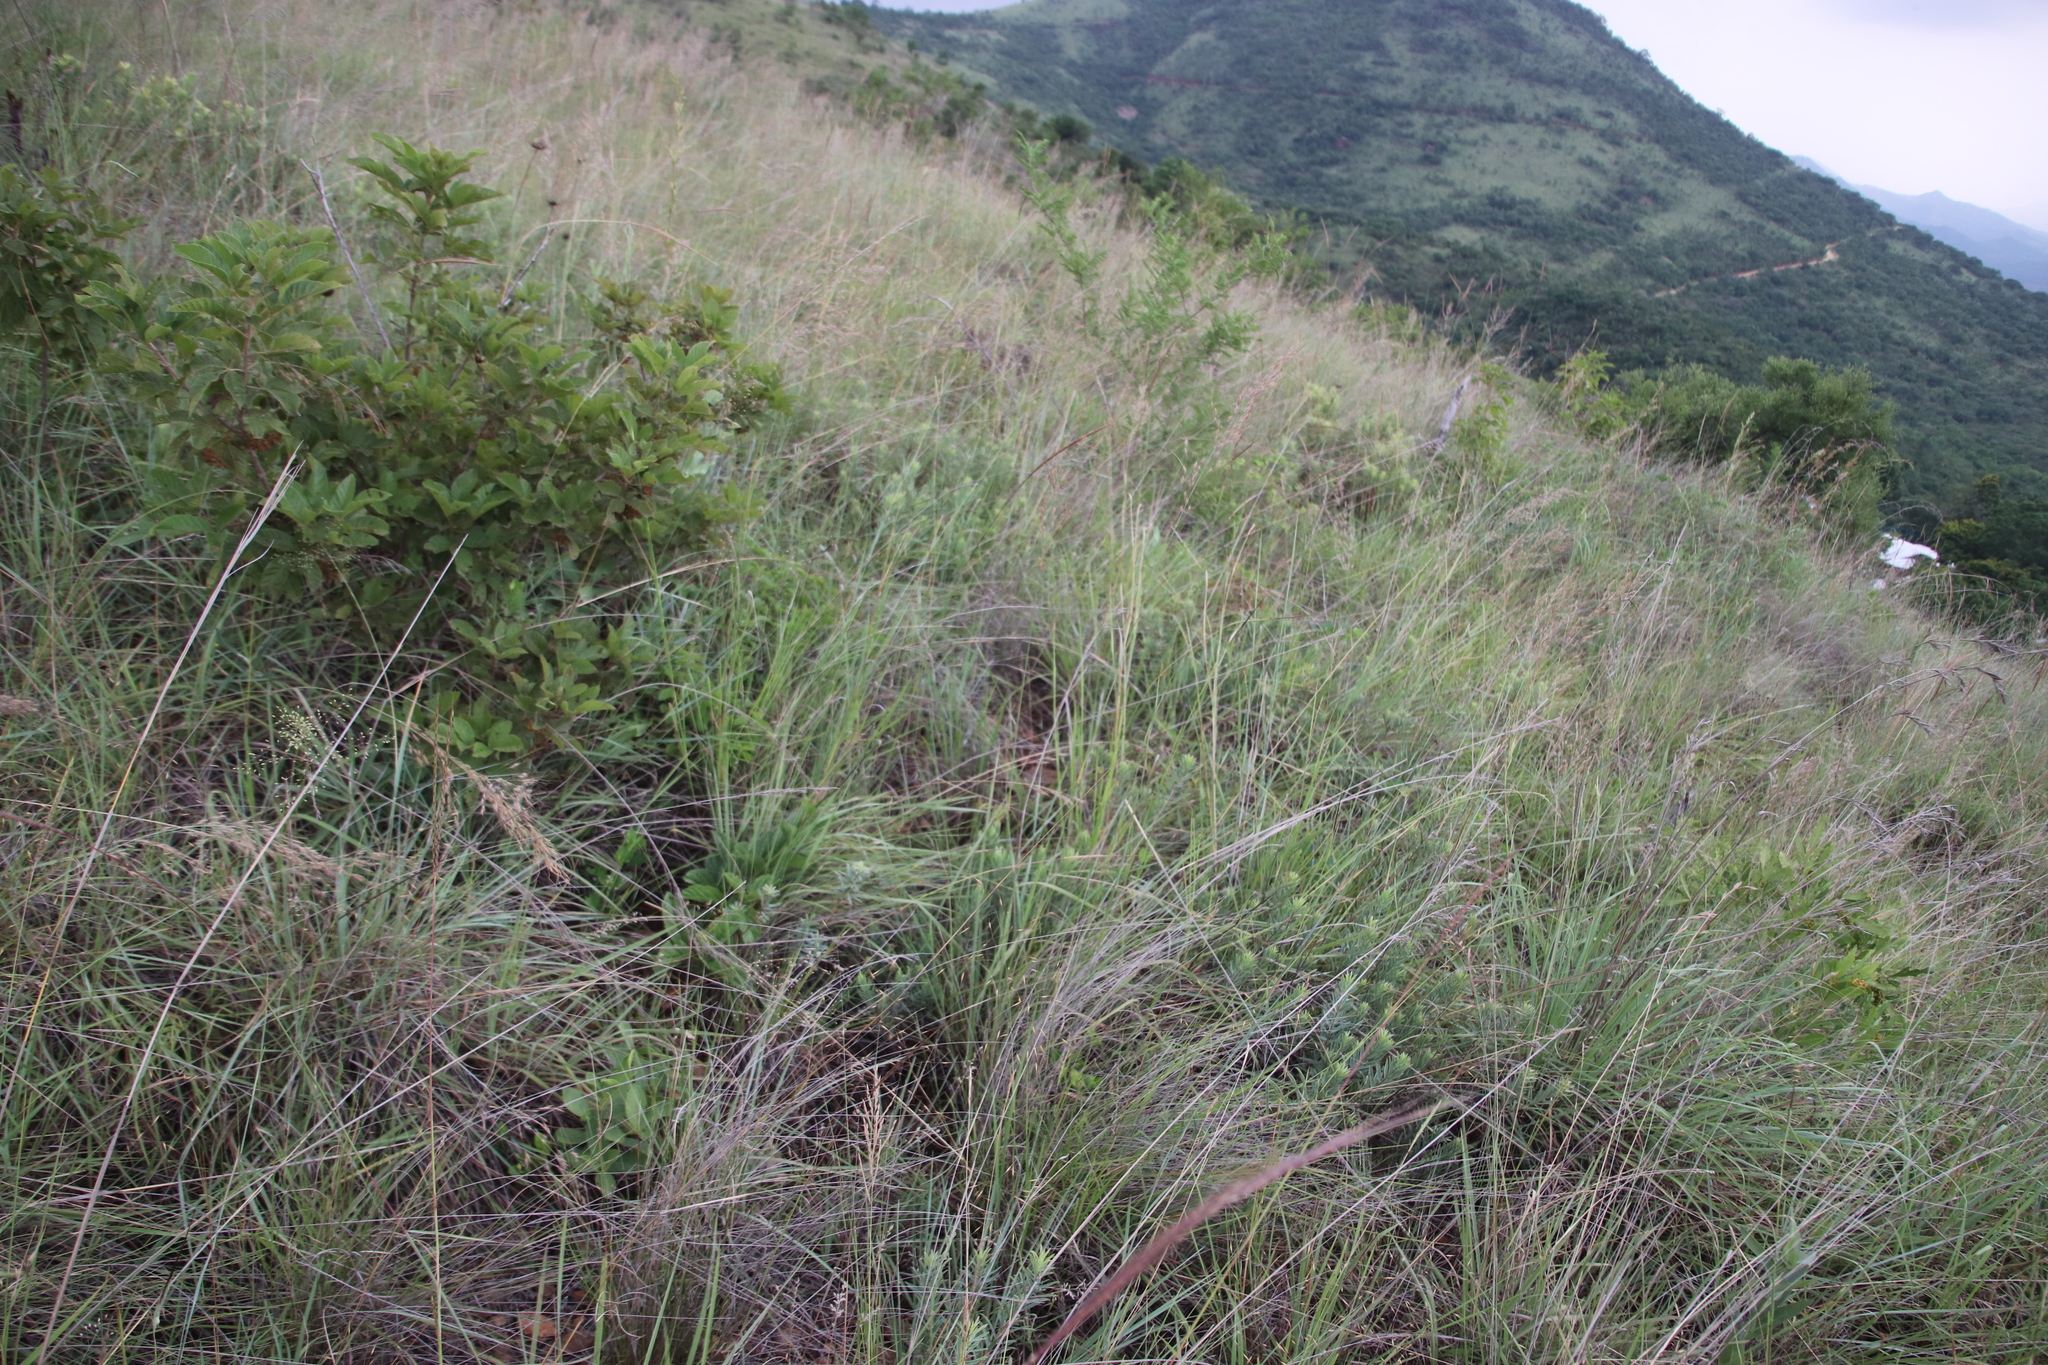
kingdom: Plantae
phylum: Tracheophyta
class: Magnoliopsida
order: Malvales
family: Thymelaeaceae
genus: Gnidia
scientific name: Gnidia capitata
